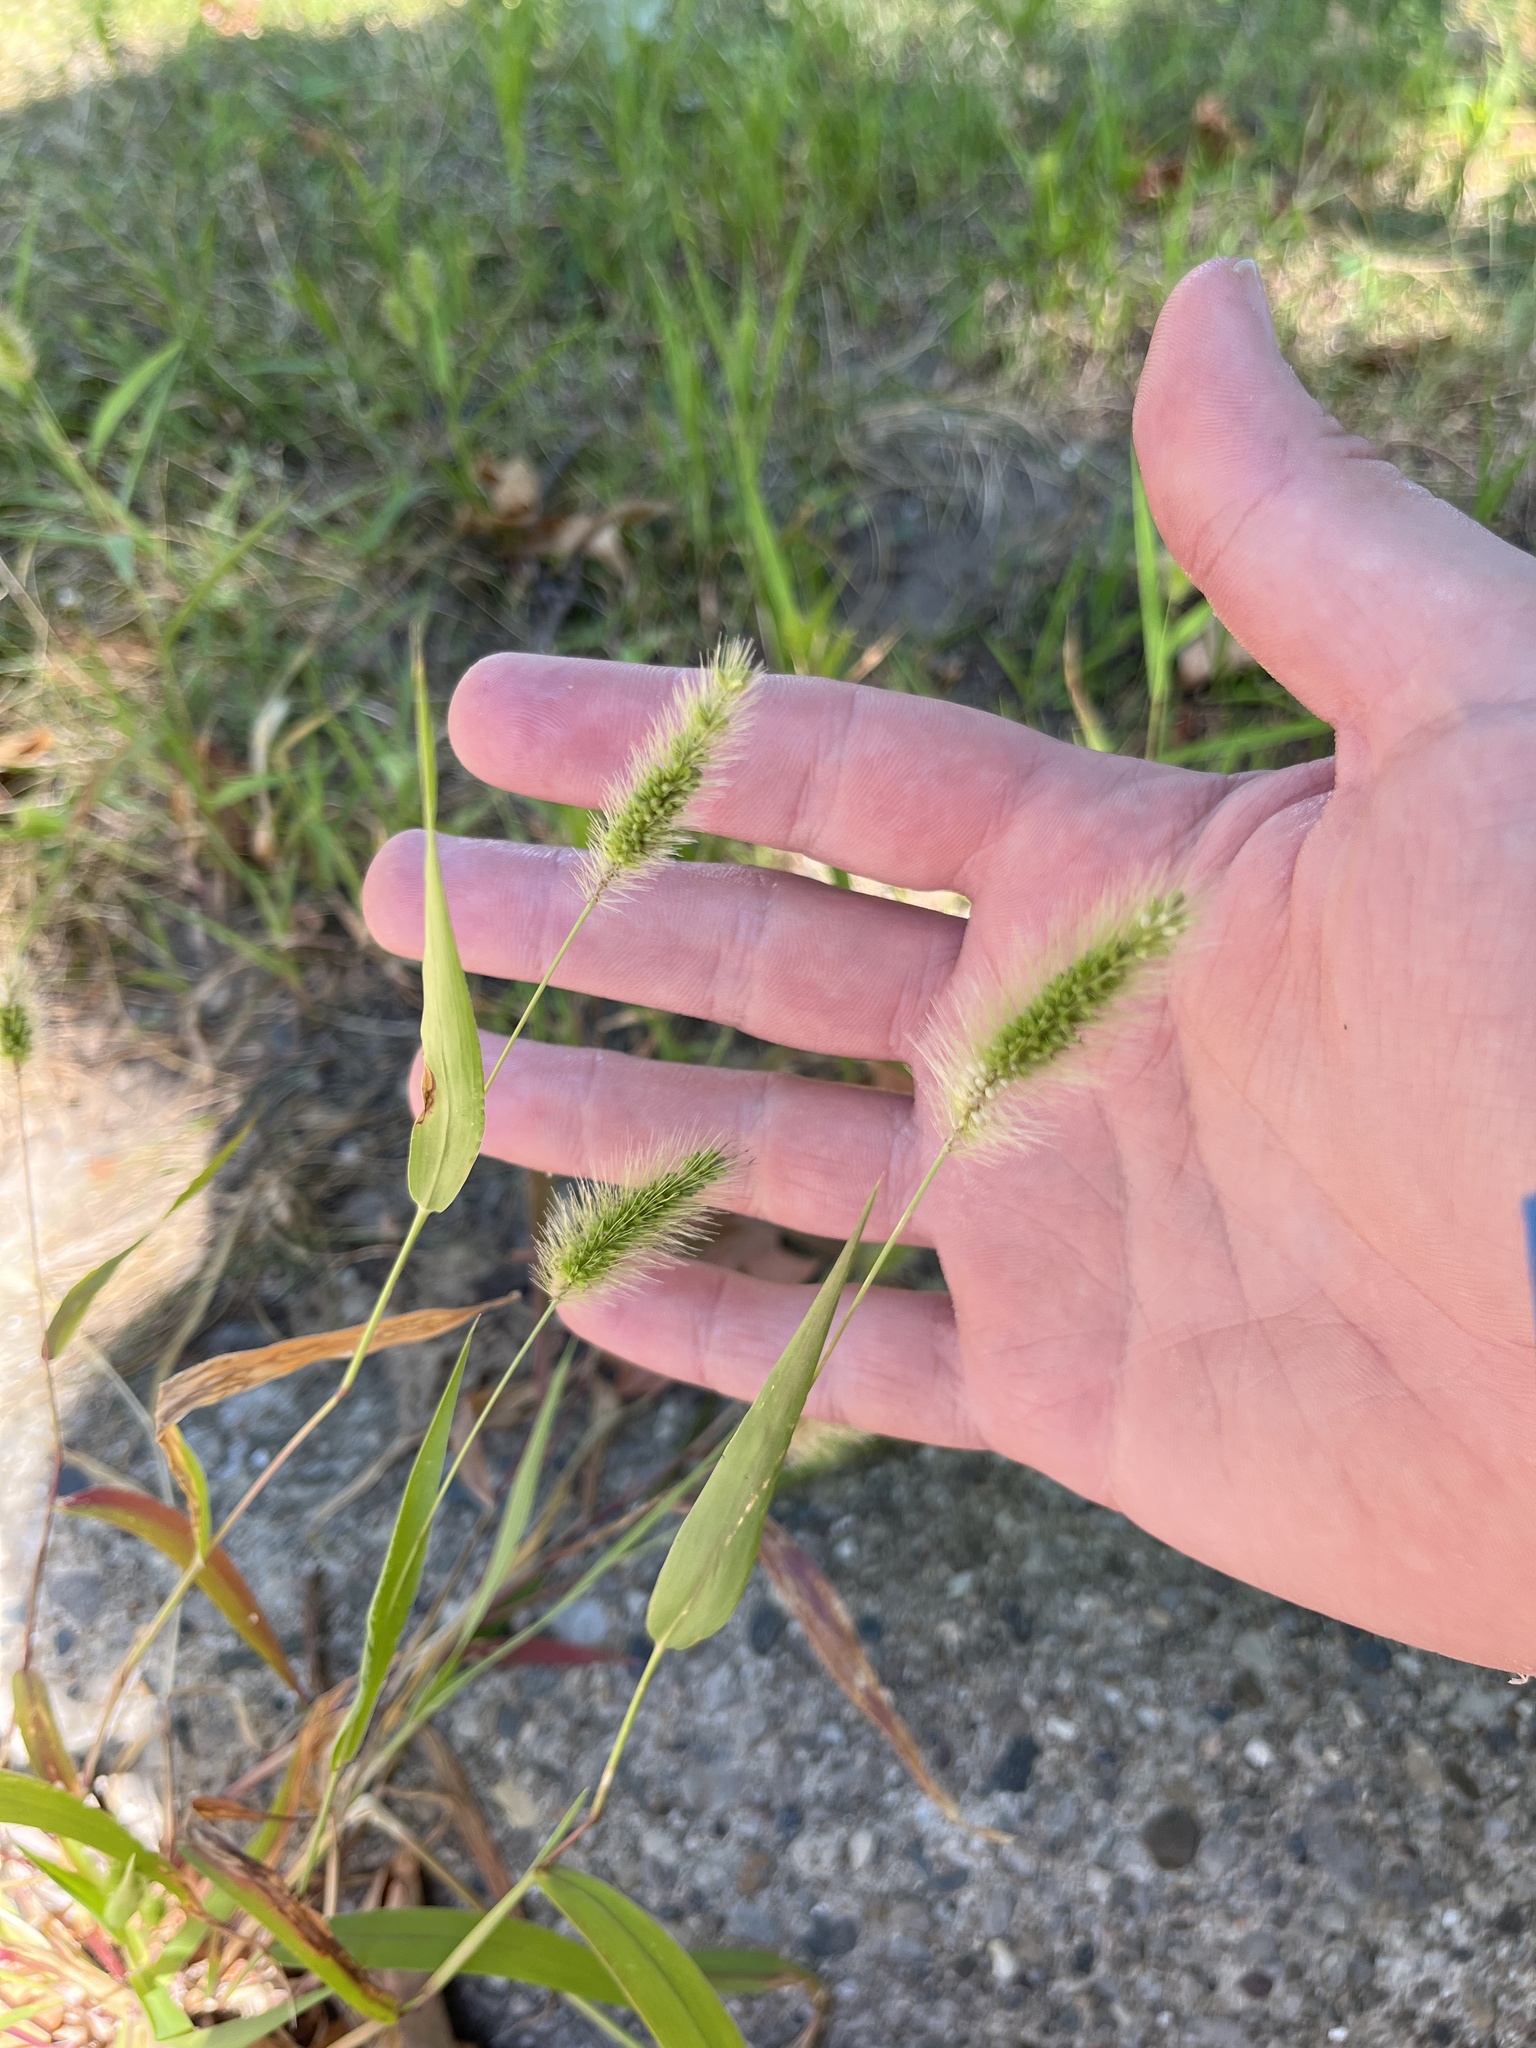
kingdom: Plantae
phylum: Tracheophyta
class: Liliopsida
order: Poales
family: Poaceae
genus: Setaria
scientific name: Setaria viridis
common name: Green bristlegrass
